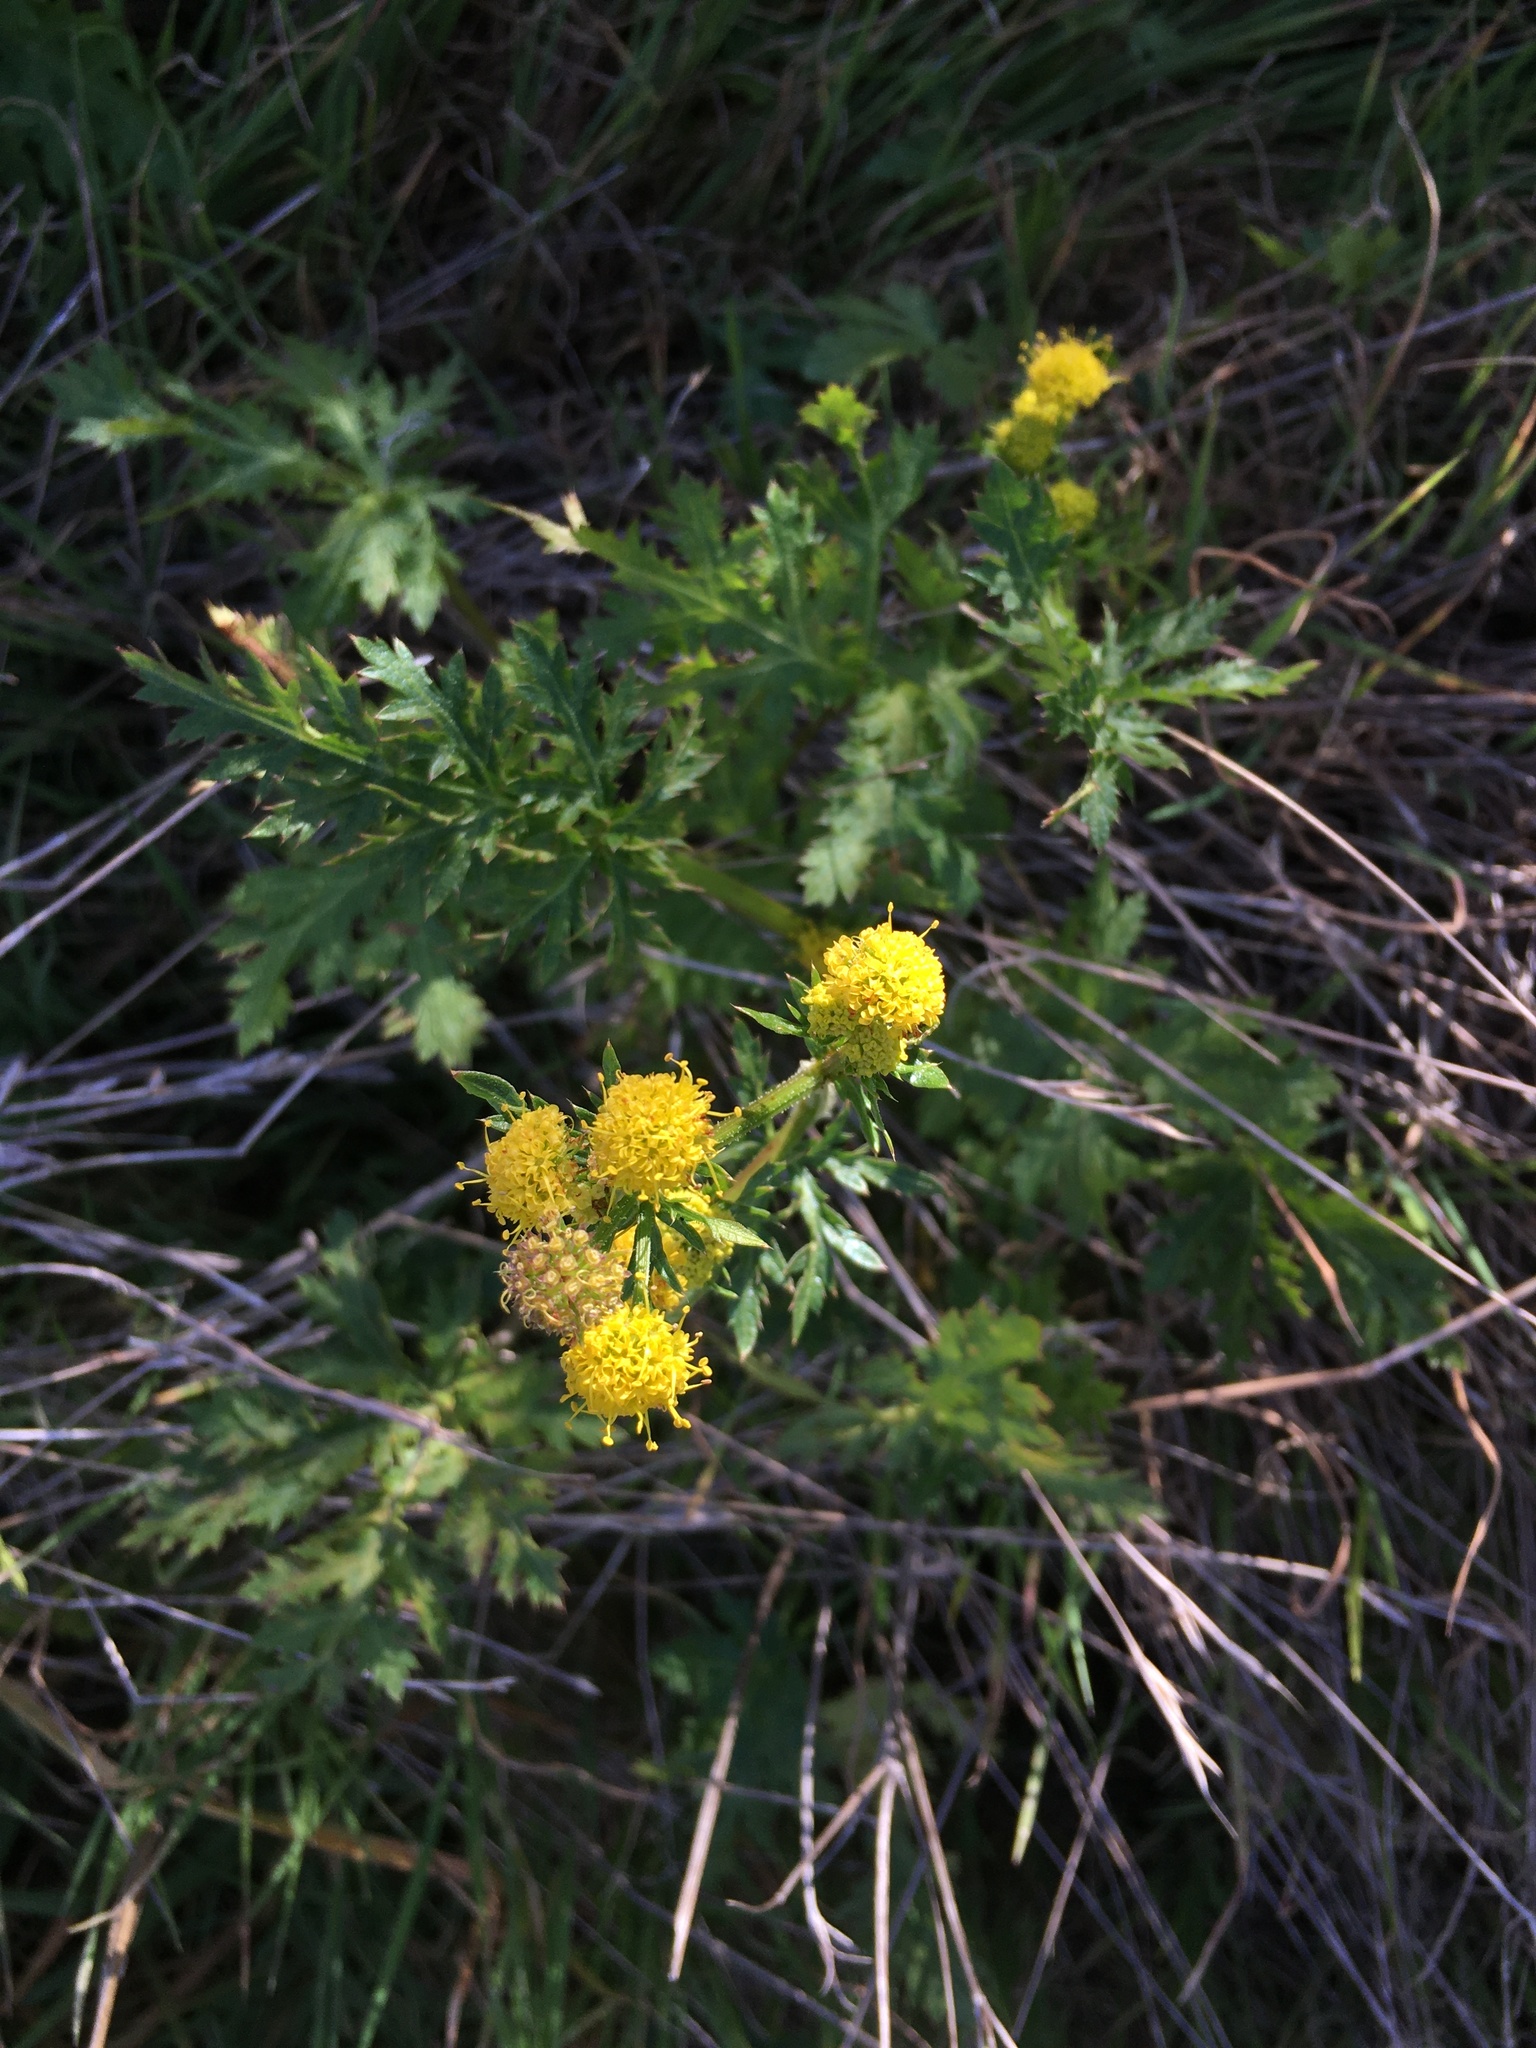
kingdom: Plantae
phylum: Tracheophyta
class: Magnoliopsida
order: Apiales
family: Apiaceae
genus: Sanicula
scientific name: Sanicula arguta
